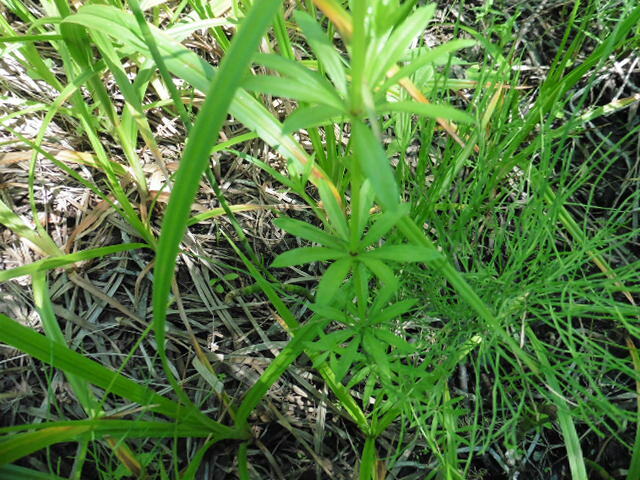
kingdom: Plantae
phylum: Tracheophyta
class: Magnoliopsida
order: Gentianales
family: Rubiaceae
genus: Galium
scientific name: Galium rivale
